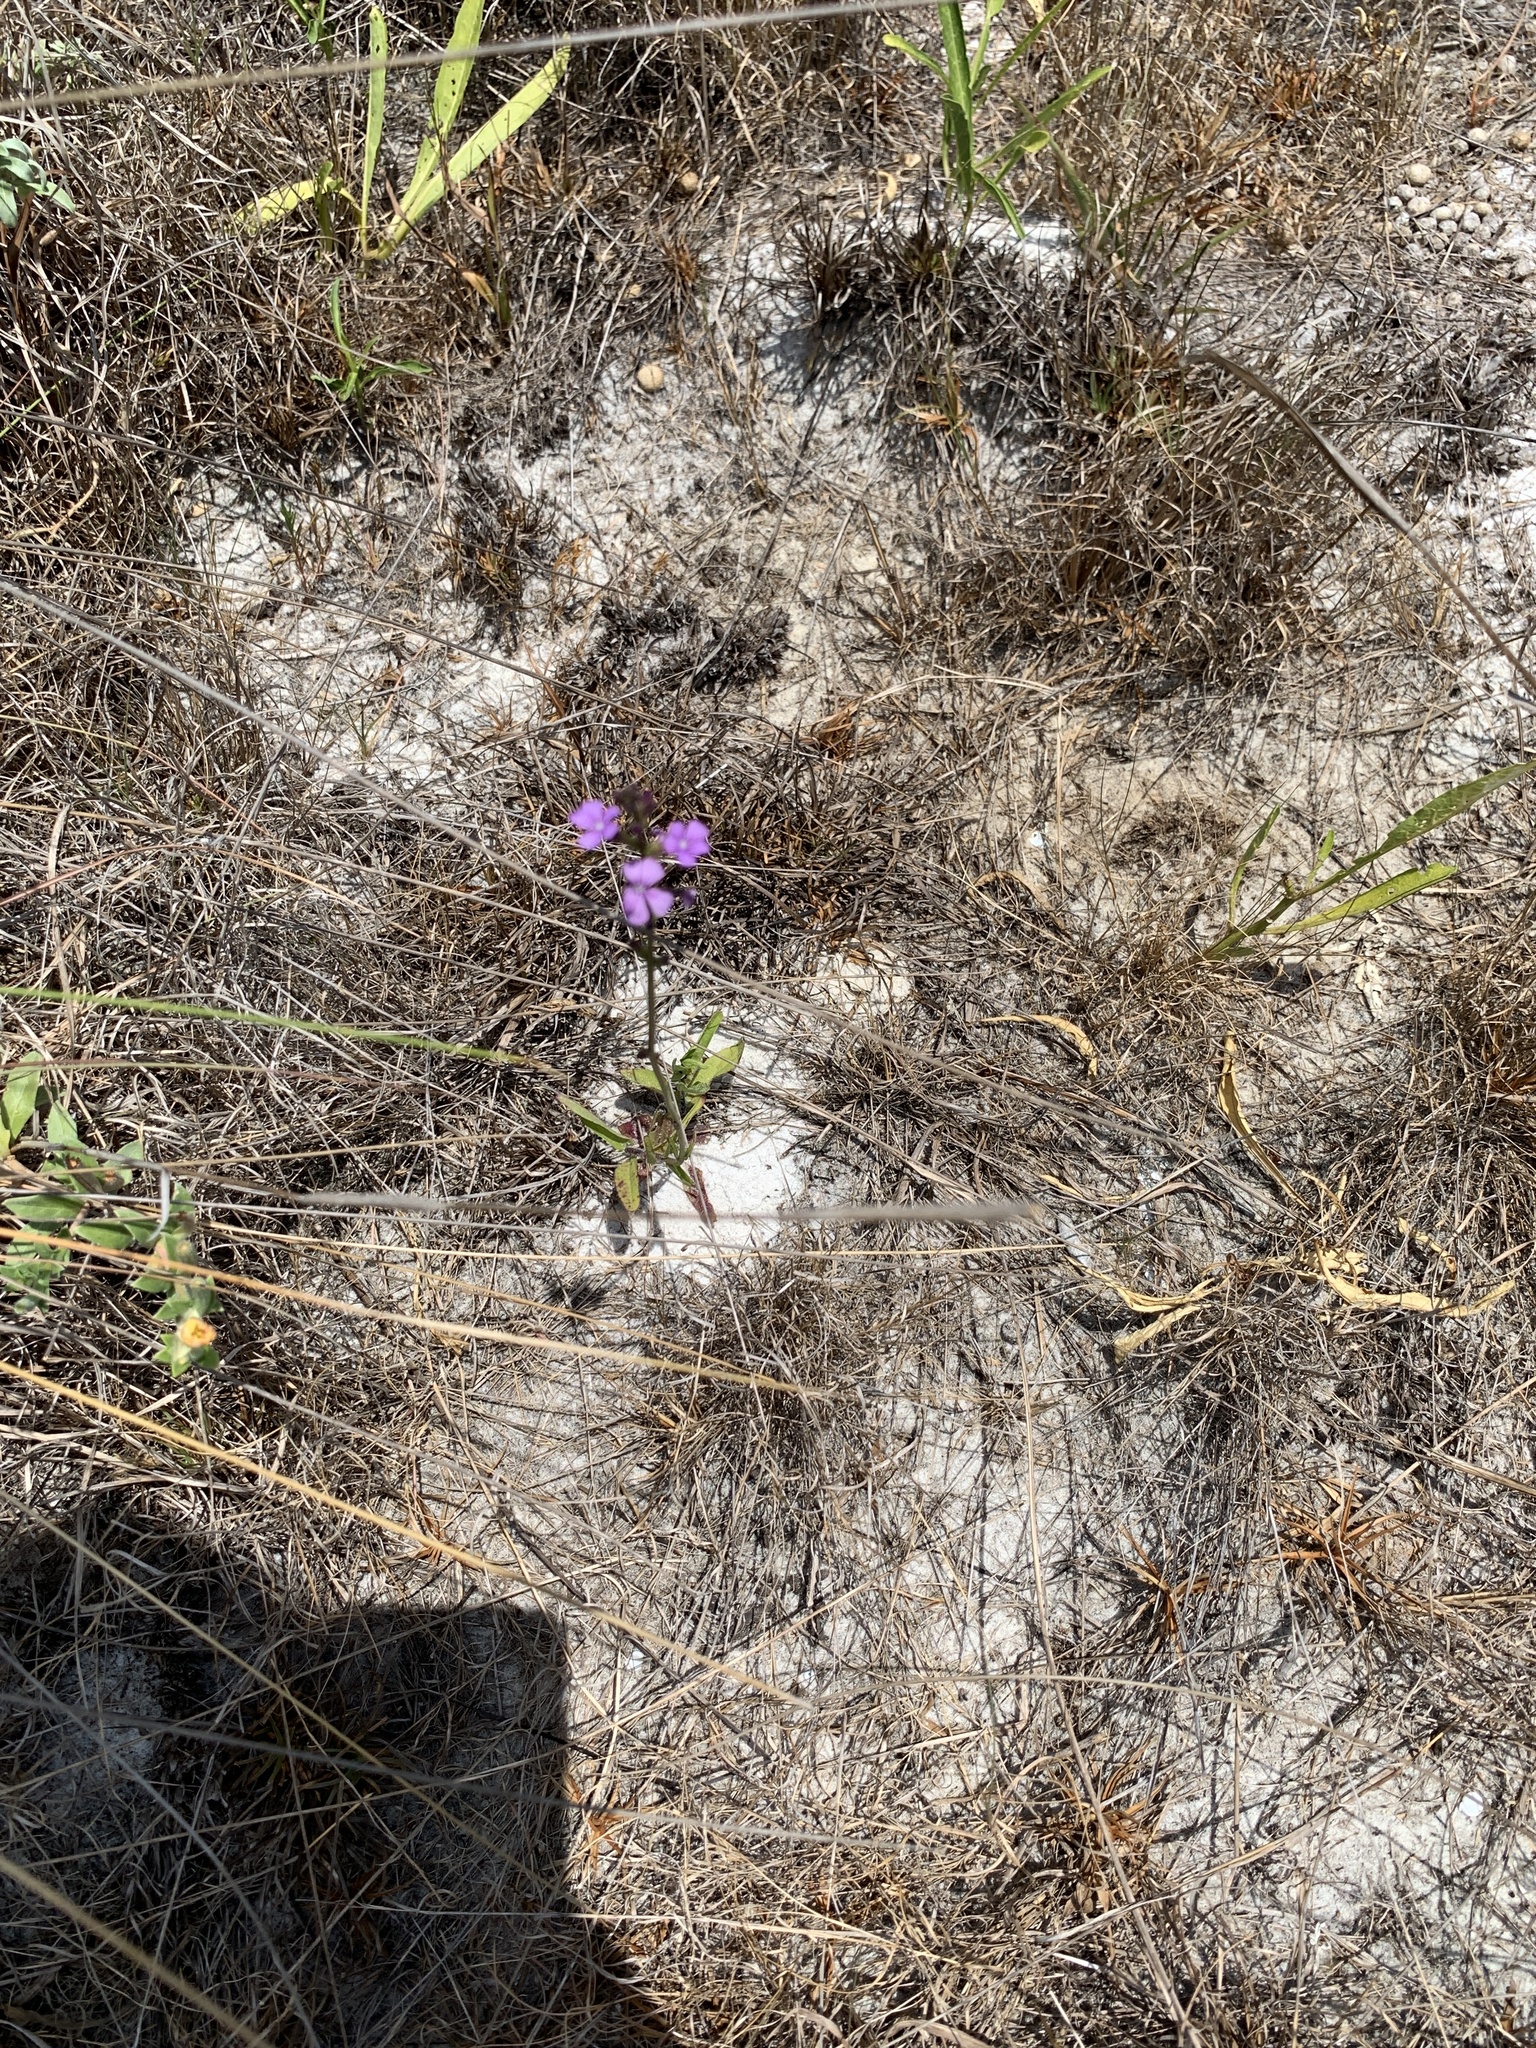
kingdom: Plantae
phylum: Tracheophyta
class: Magnoliopsida
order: Lamiales
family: Orobanchaceae
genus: Buchnera
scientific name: Buchnera floridana
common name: Florida bluehearts
